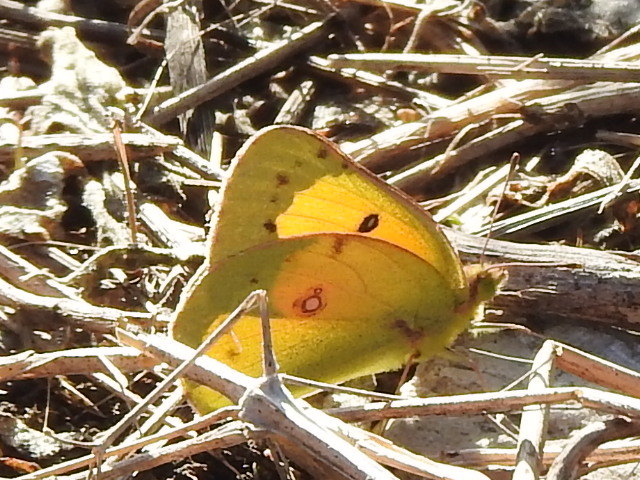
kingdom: Animalia
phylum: Arthropoda
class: Insecta
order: Lepidoptera
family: Pieridae
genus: Colias
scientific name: Colias eurytheme
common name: Alfalfa butterfly
